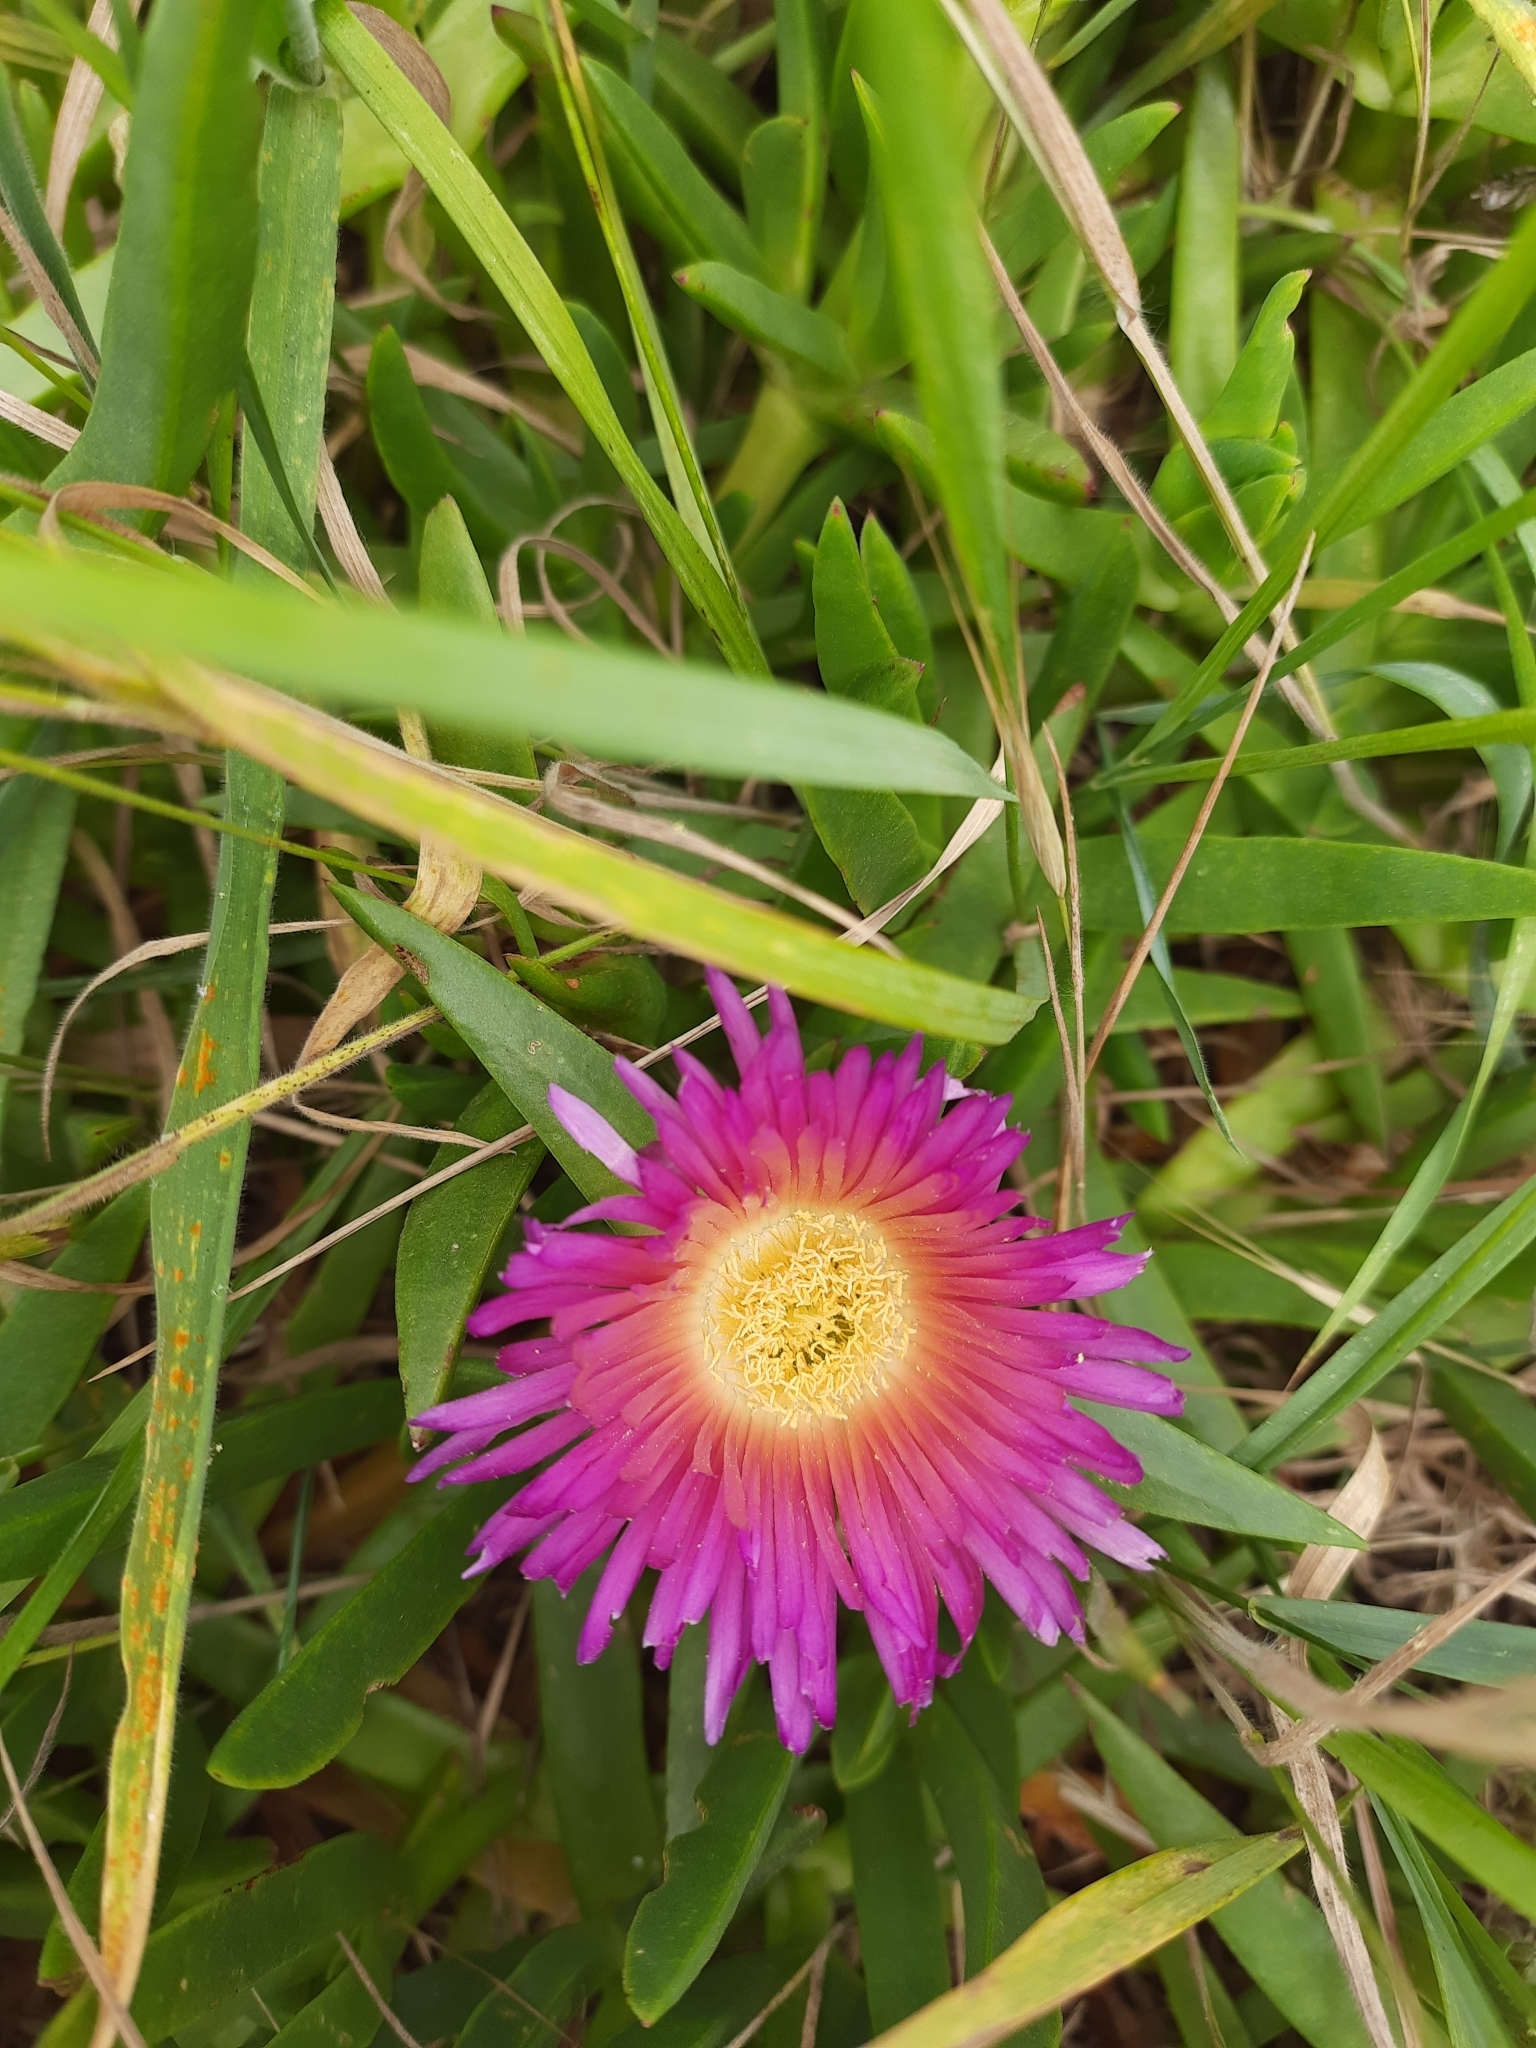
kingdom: Plantae
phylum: Tracheophyta
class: Magnoliopsida
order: Caryophyllales
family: Aizoaceae
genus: Carpobrotus
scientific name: Carpobrotus chilensis
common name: Sea fig
